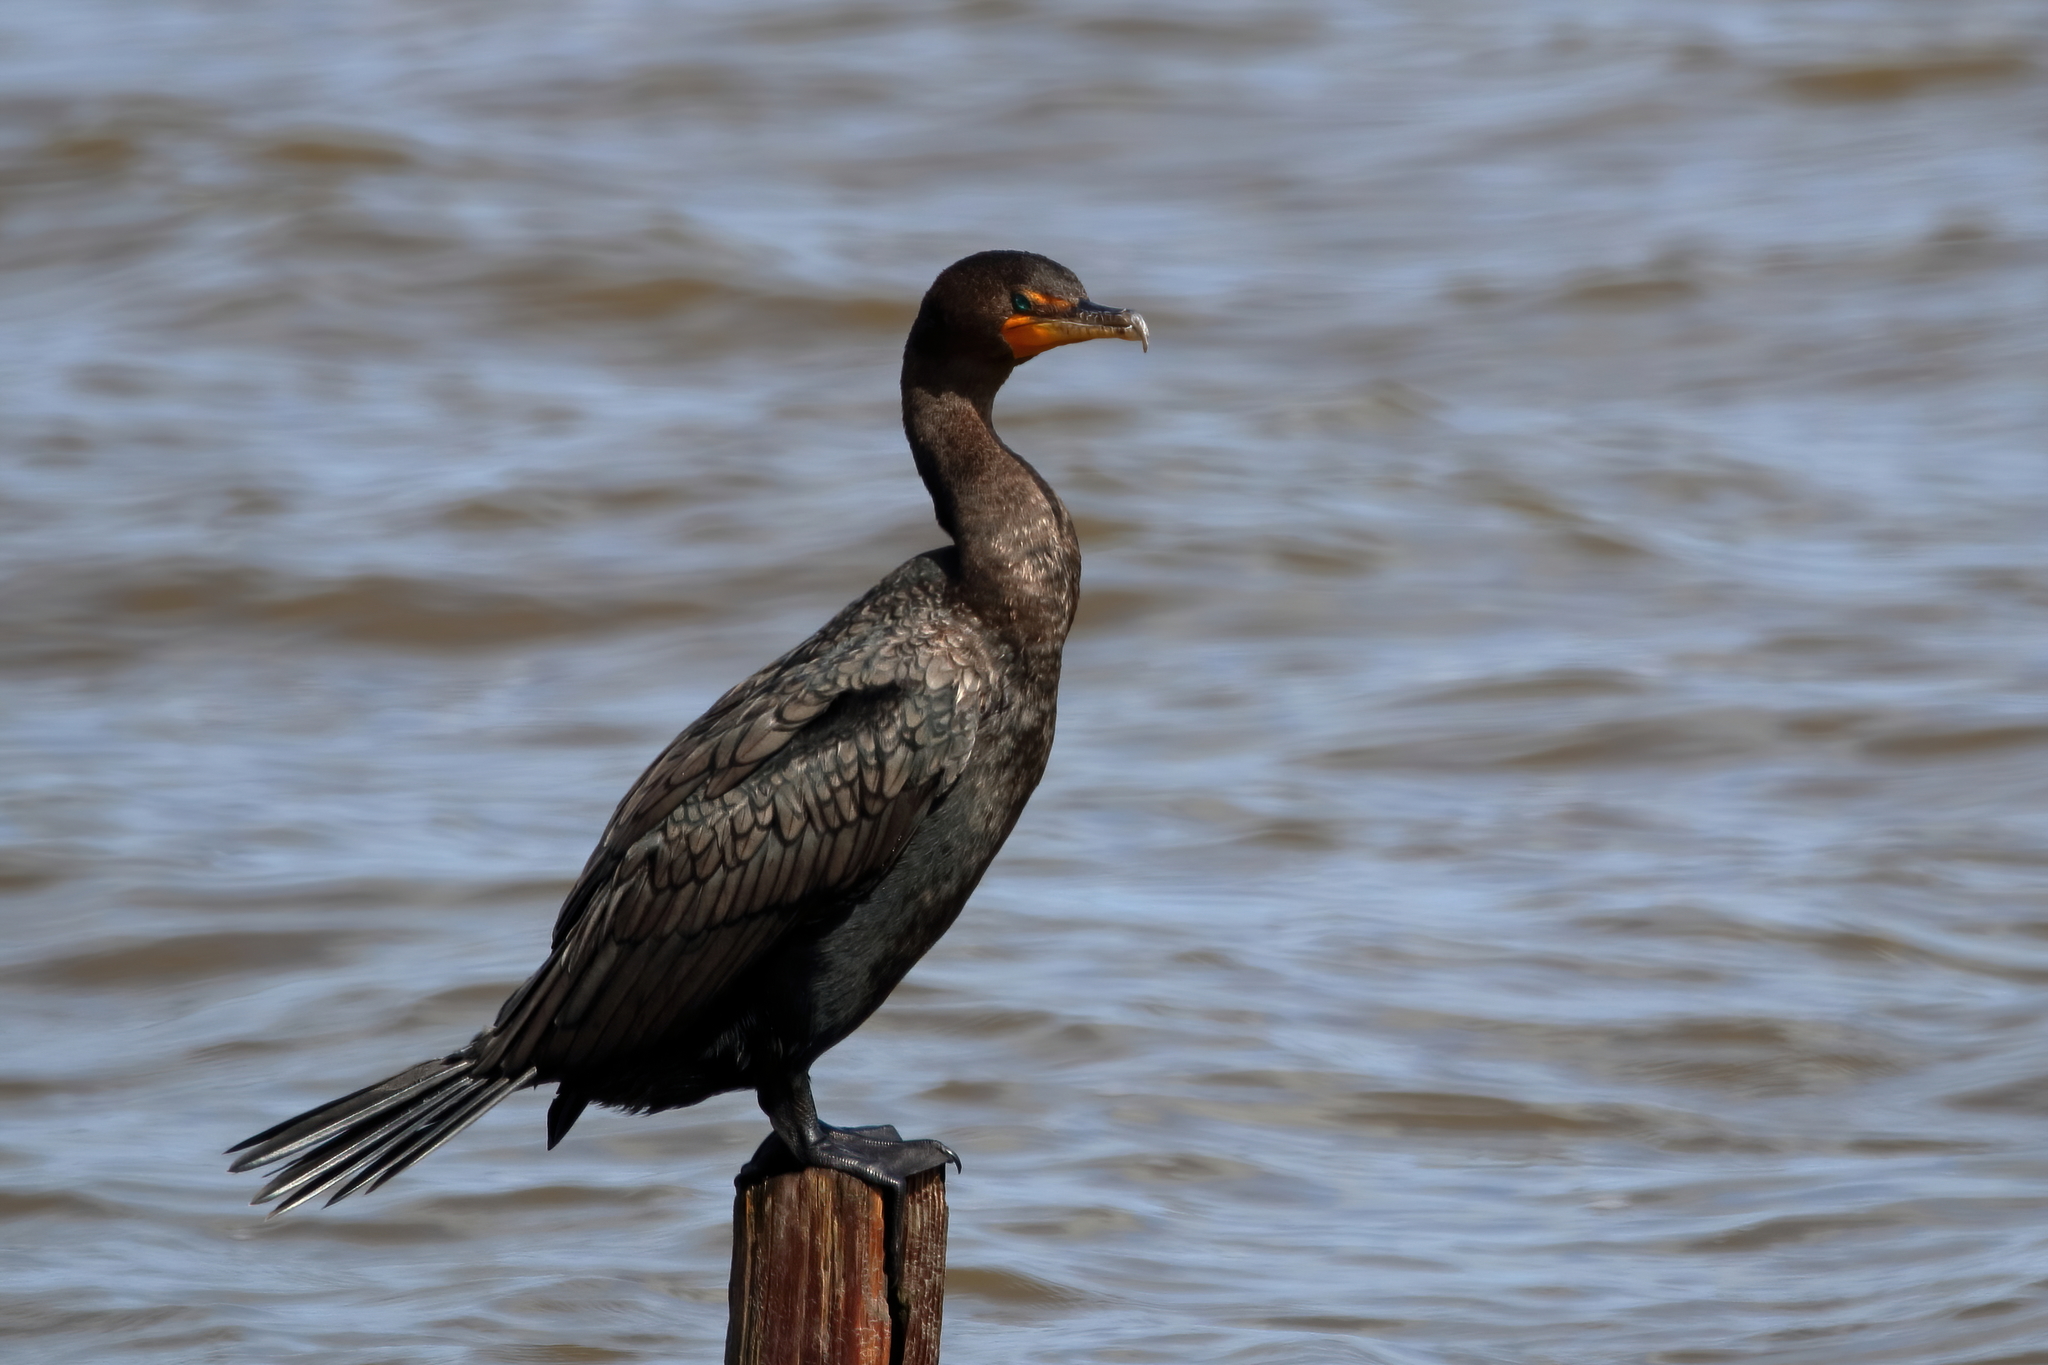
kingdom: Animalia
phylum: Chordata
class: Aves
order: Suliformes
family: Phalacrocoracidae
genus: Phalacrocorax
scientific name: Phalacrocorax auritus
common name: Double-crested cormorant
